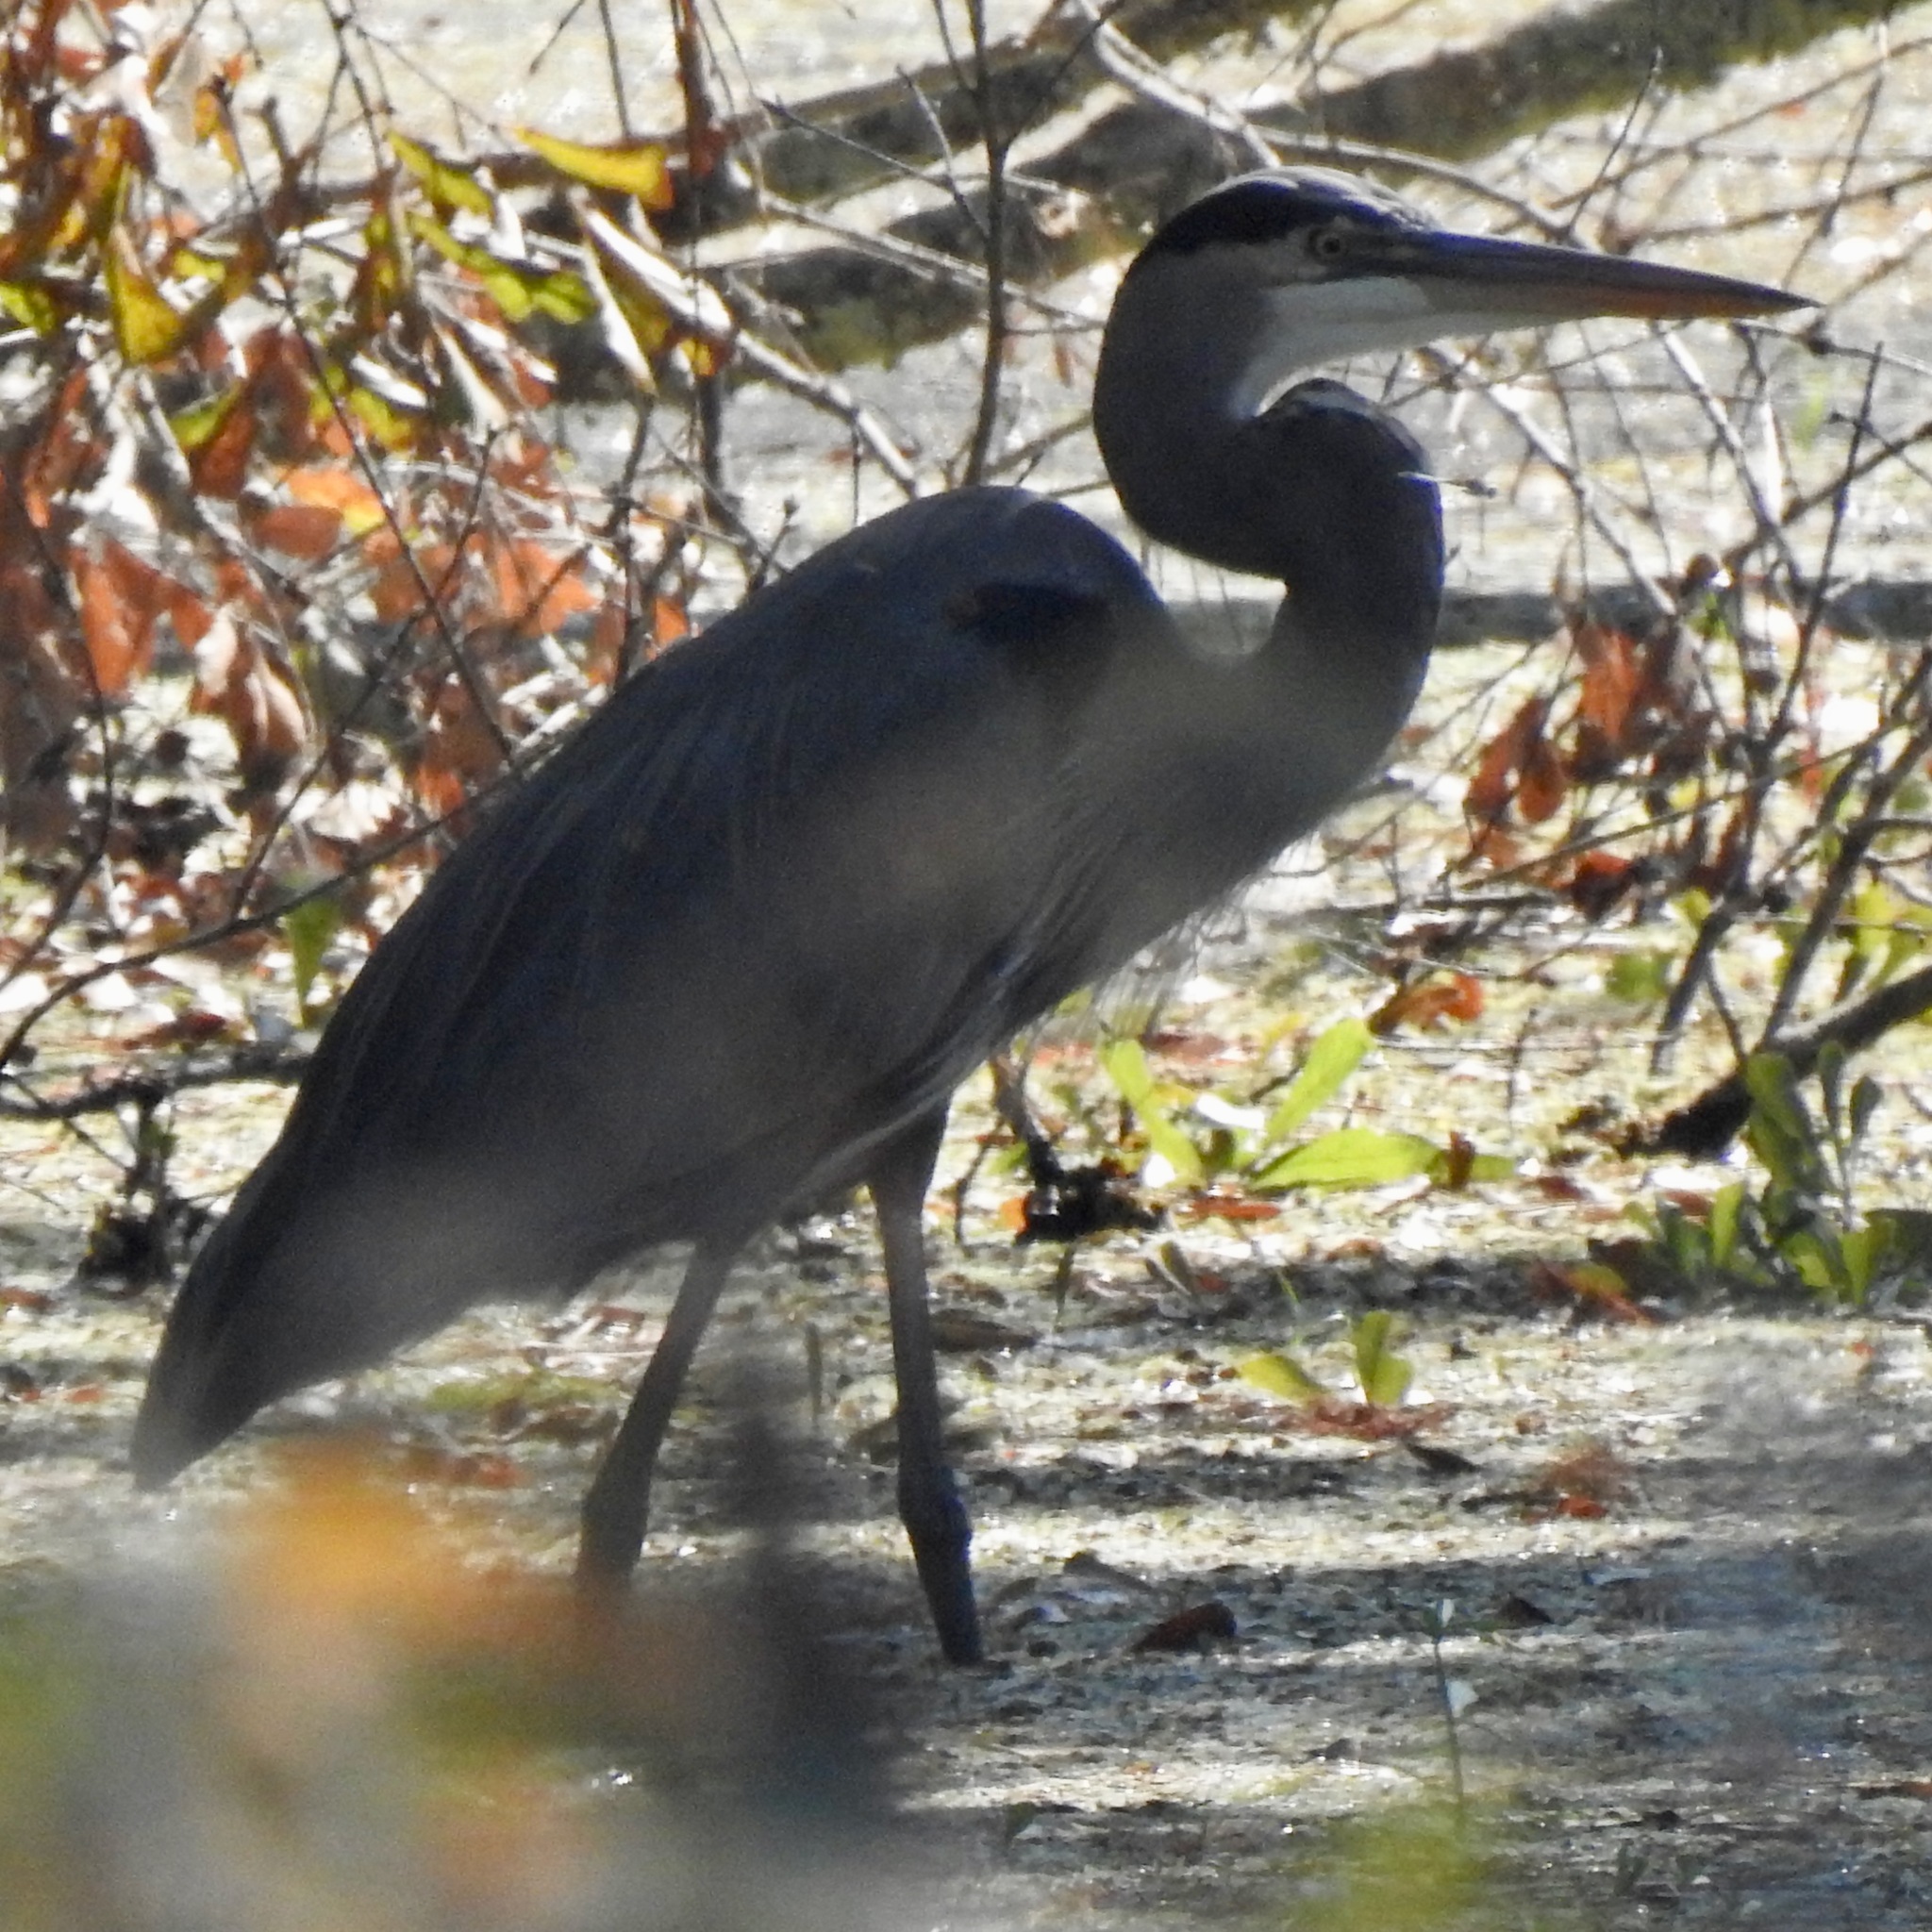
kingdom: Animalia
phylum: Chordata
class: Aves
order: Pelecaniformes
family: Ardeidae
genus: Ardea
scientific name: Ardea herodias
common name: Great blue heron
